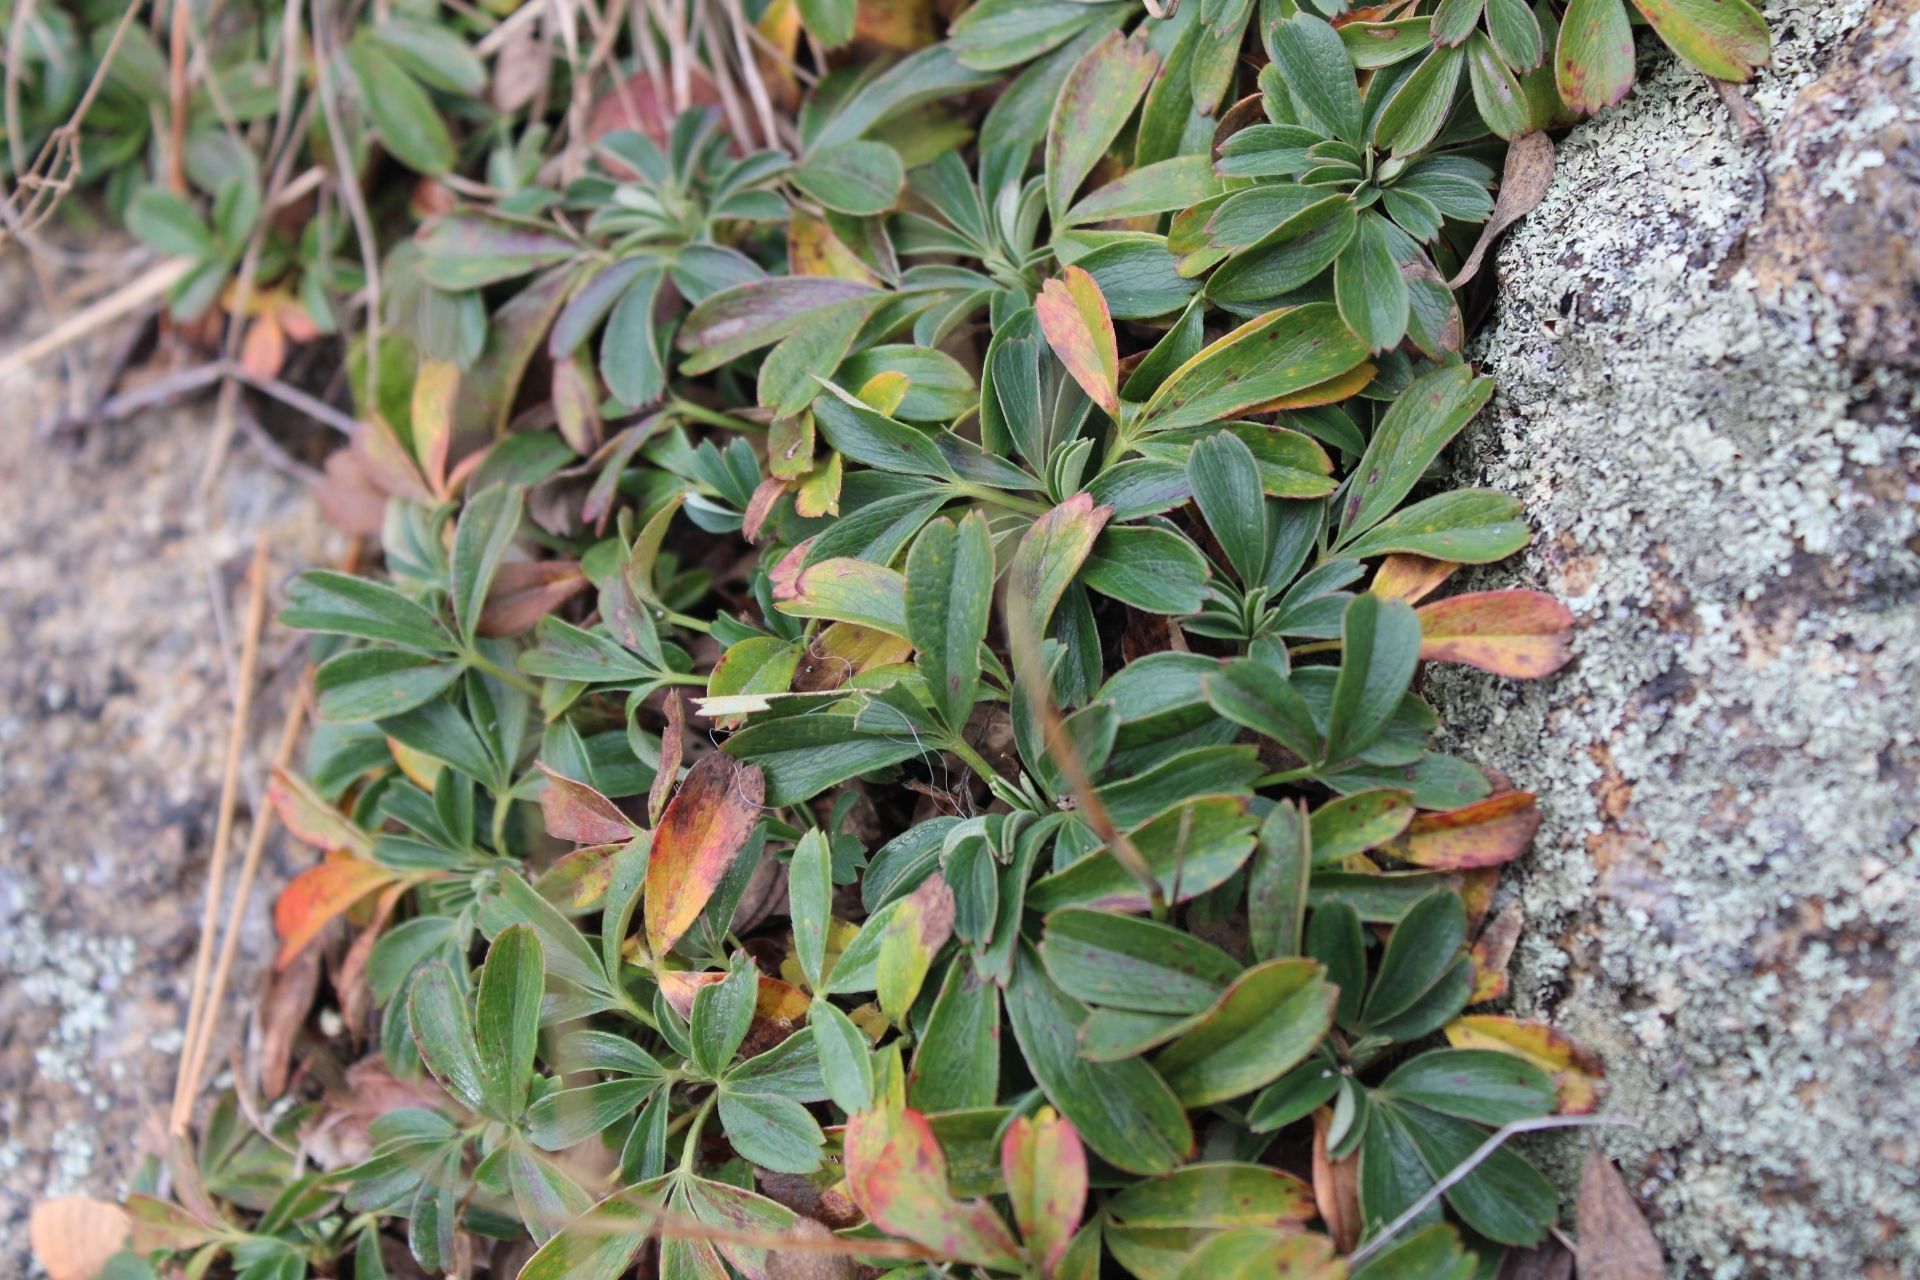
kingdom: Plantae
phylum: Tracheophyta
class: Magnoliopsida
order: Rosales
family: Rosaceae
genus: Sibbaldia
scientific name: Sibbaldia tridentata
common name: Three-toothed cinquefoil
